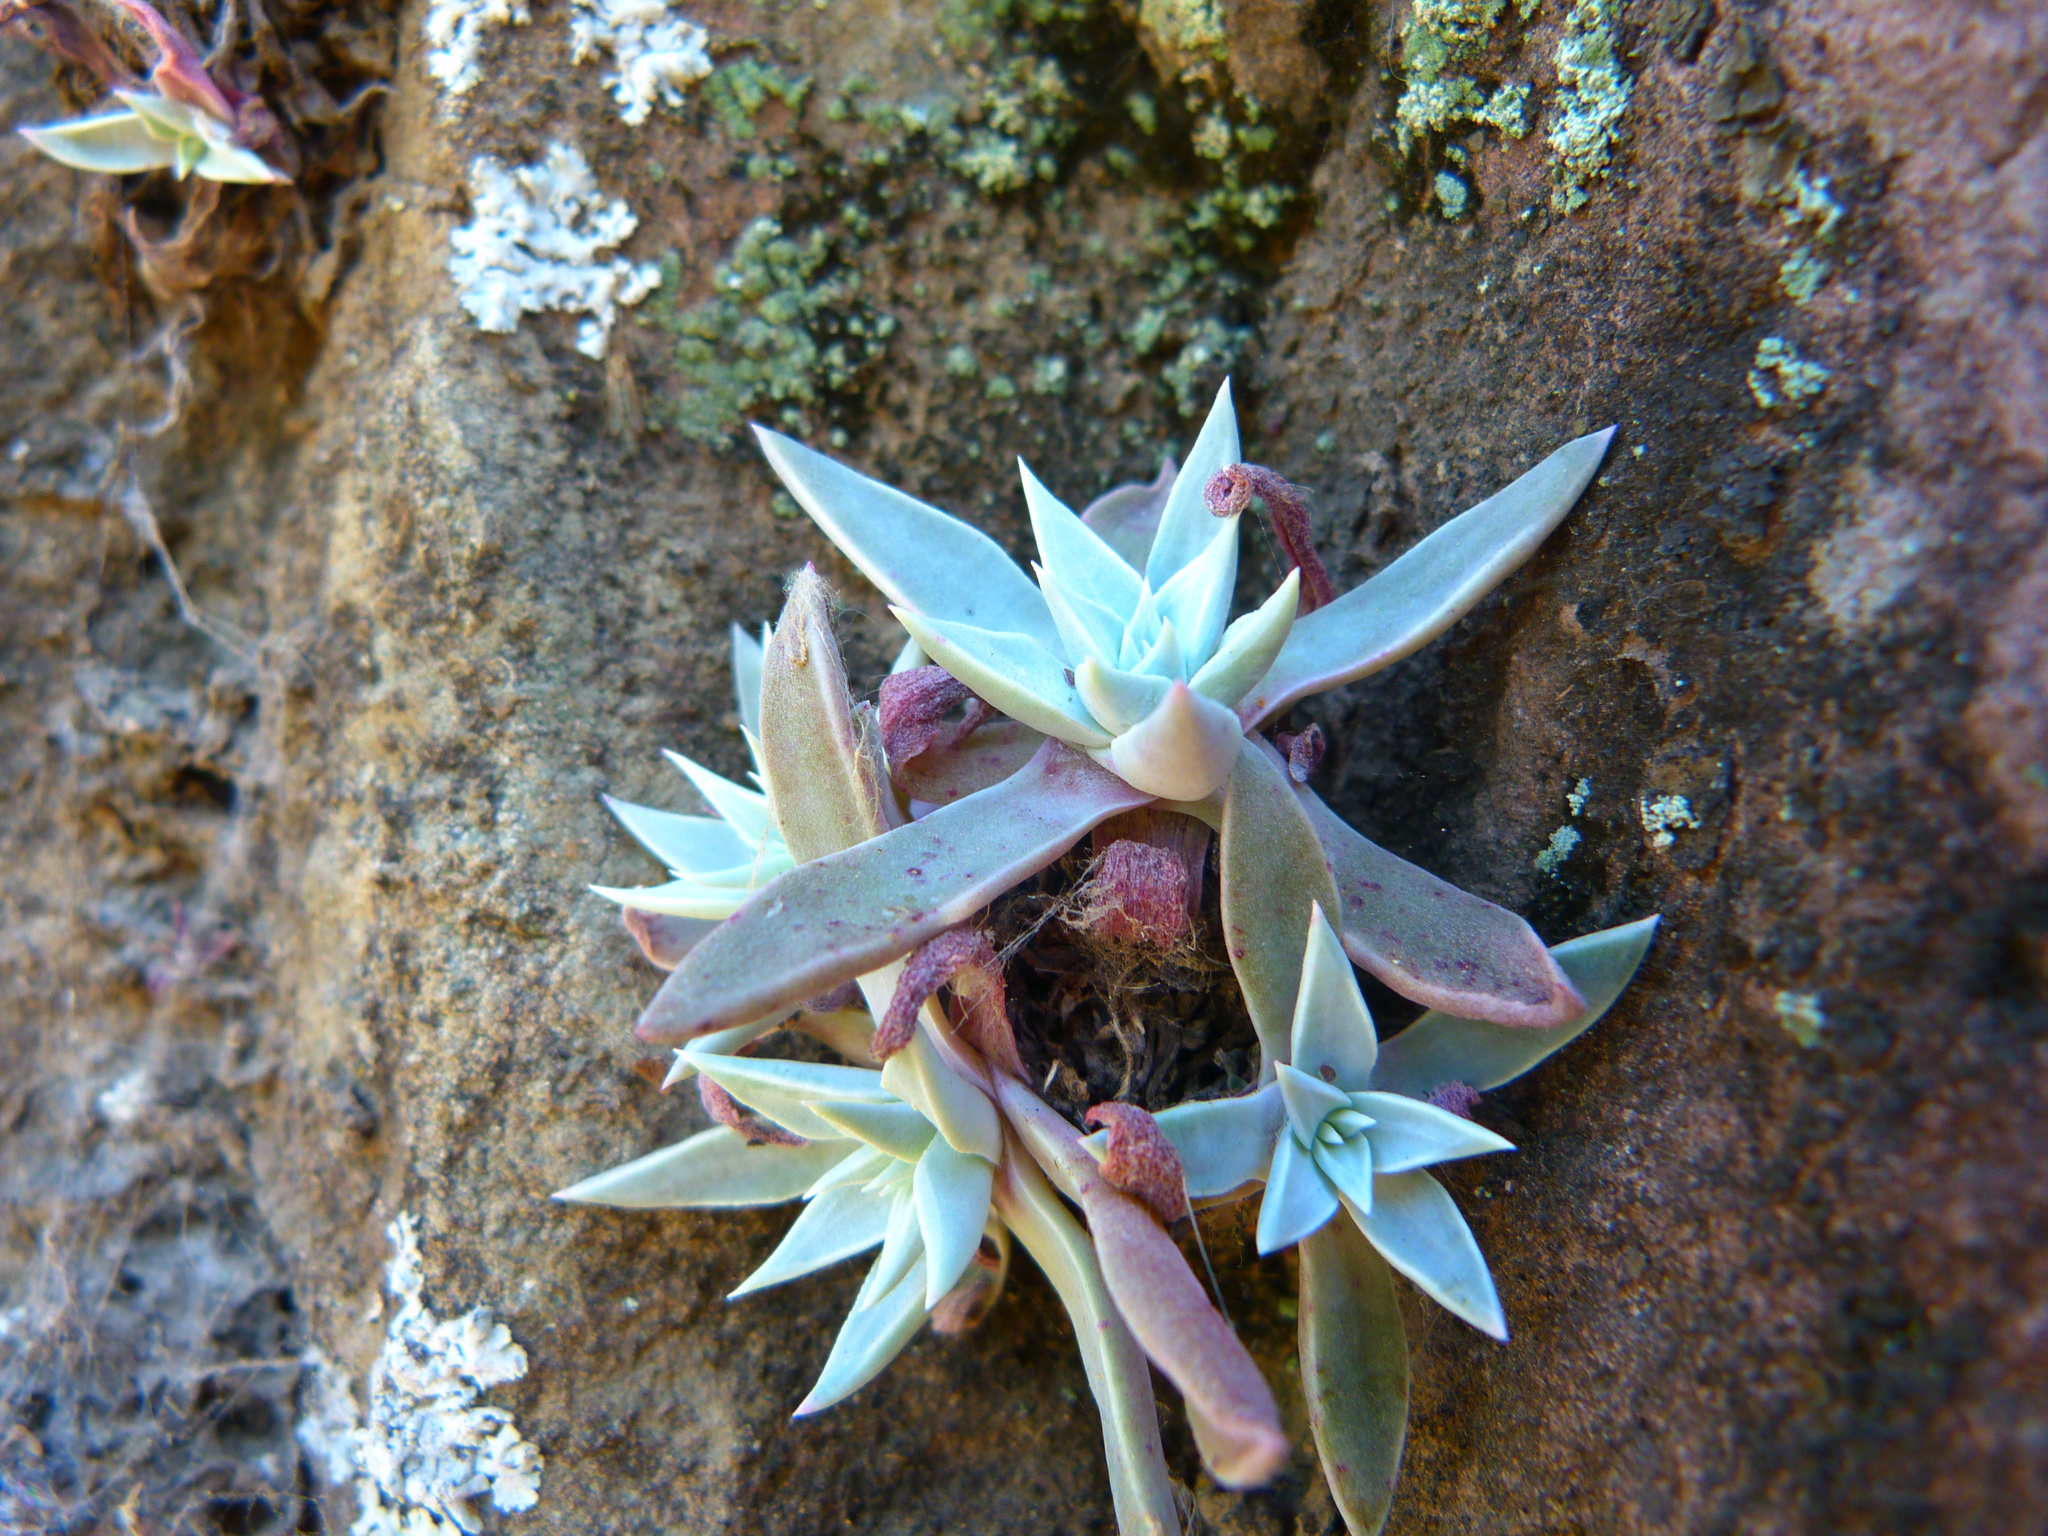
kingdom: Plantae
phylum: Tracheophyta
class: Magnoliopsida
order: Saxifragales
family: Crassulaceae
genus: Dudleya
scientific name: Dudleya verityi
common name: Verity dudleya
